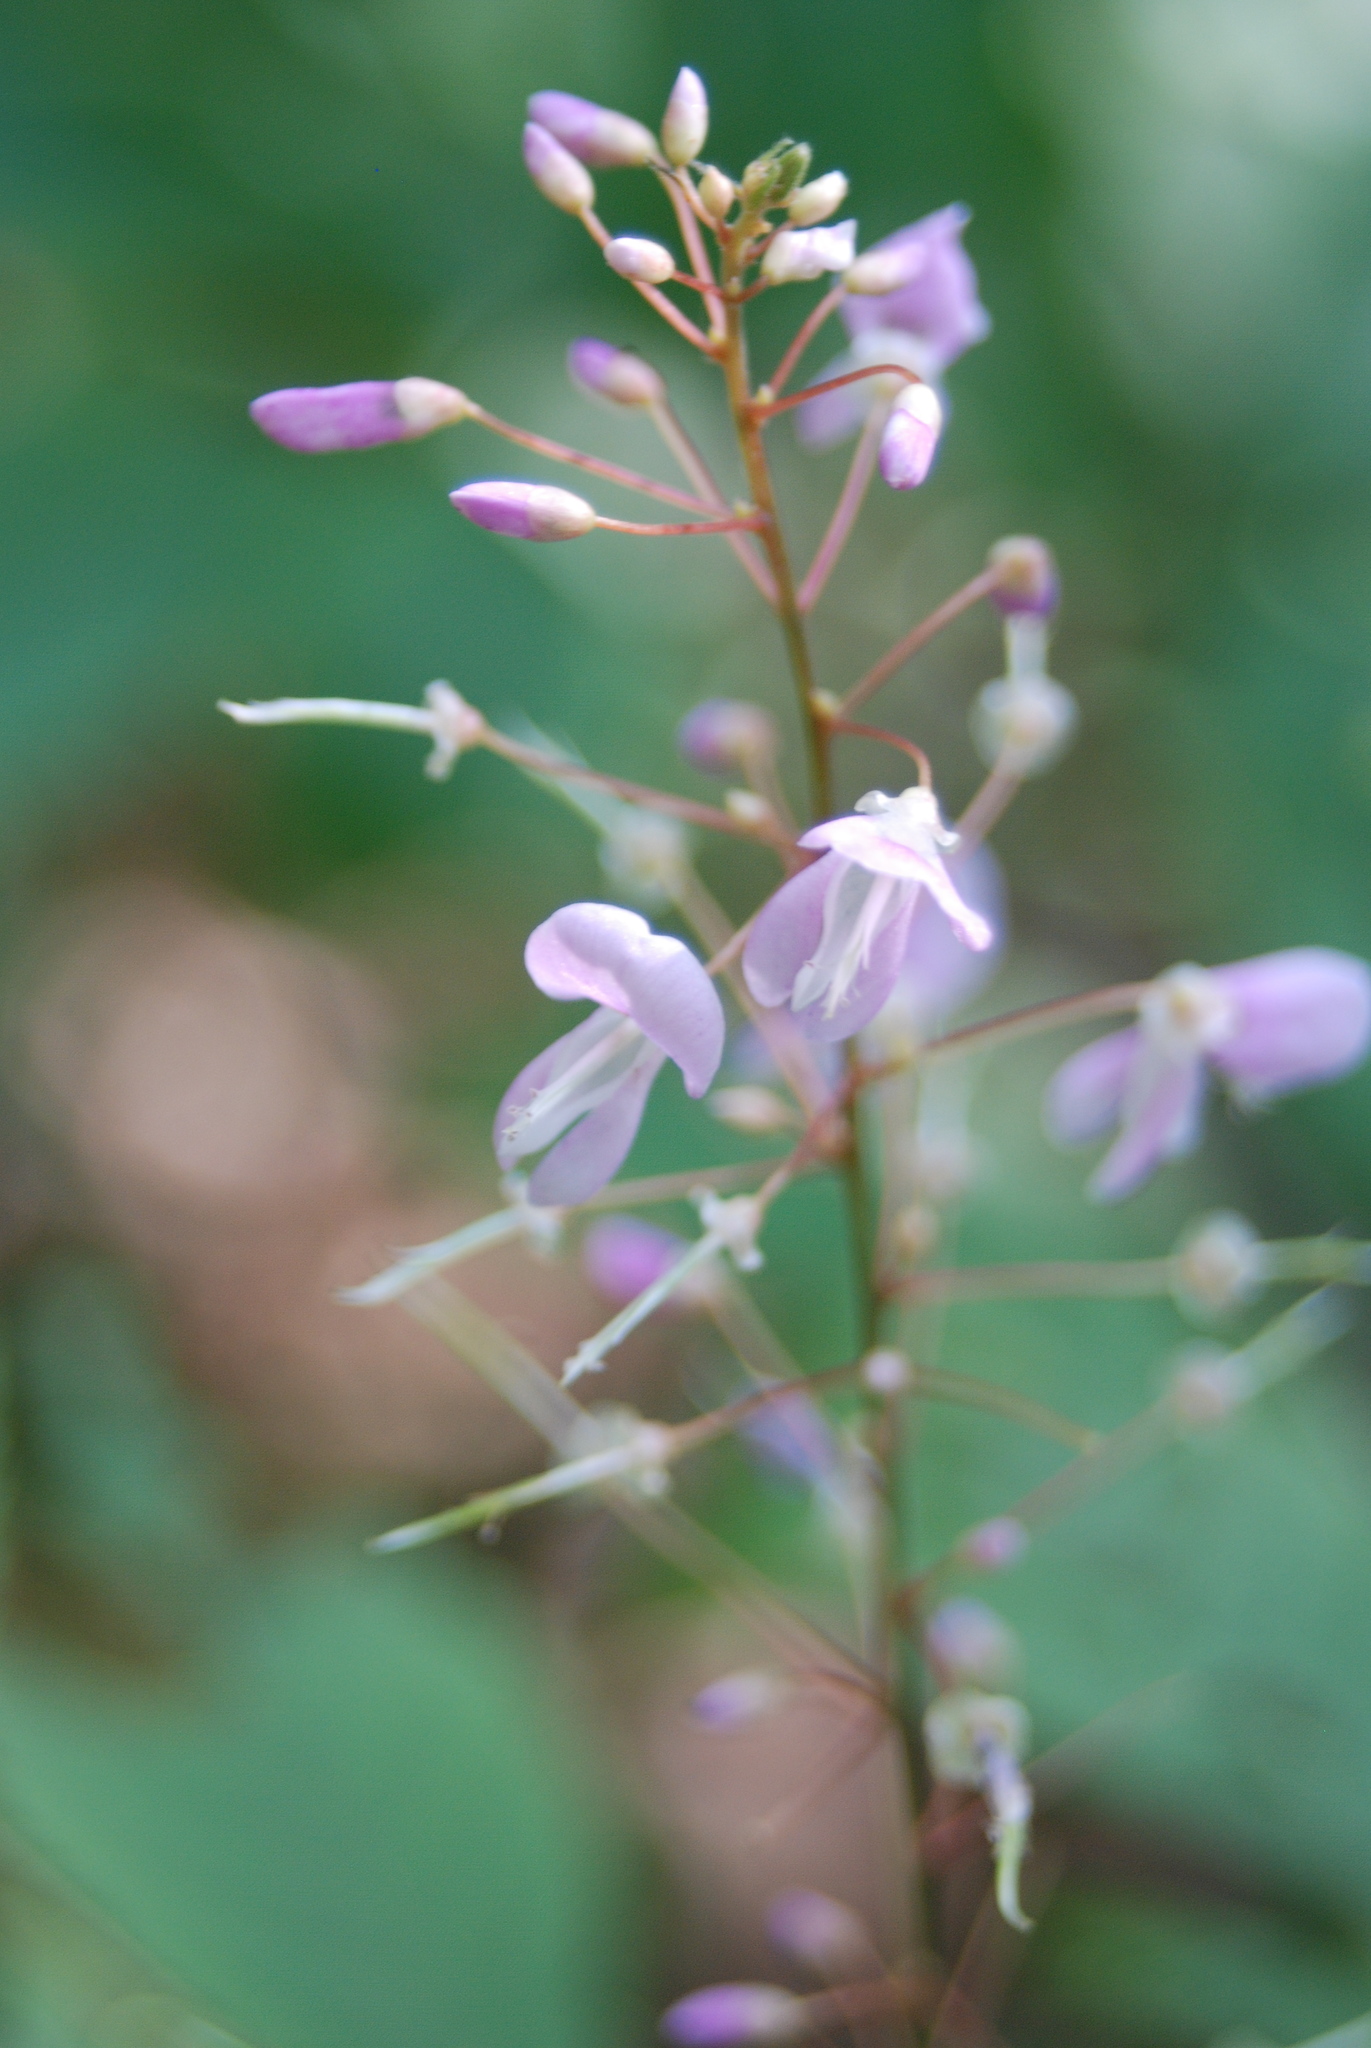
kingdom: Plantae
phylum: Tracheophyta
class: Magnoliopsida
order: Fabales
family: Fabaceae
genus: Hylodesmum
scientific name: Hylodesmum nudiflorum
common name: Bare-stemmed tick-trefoil
